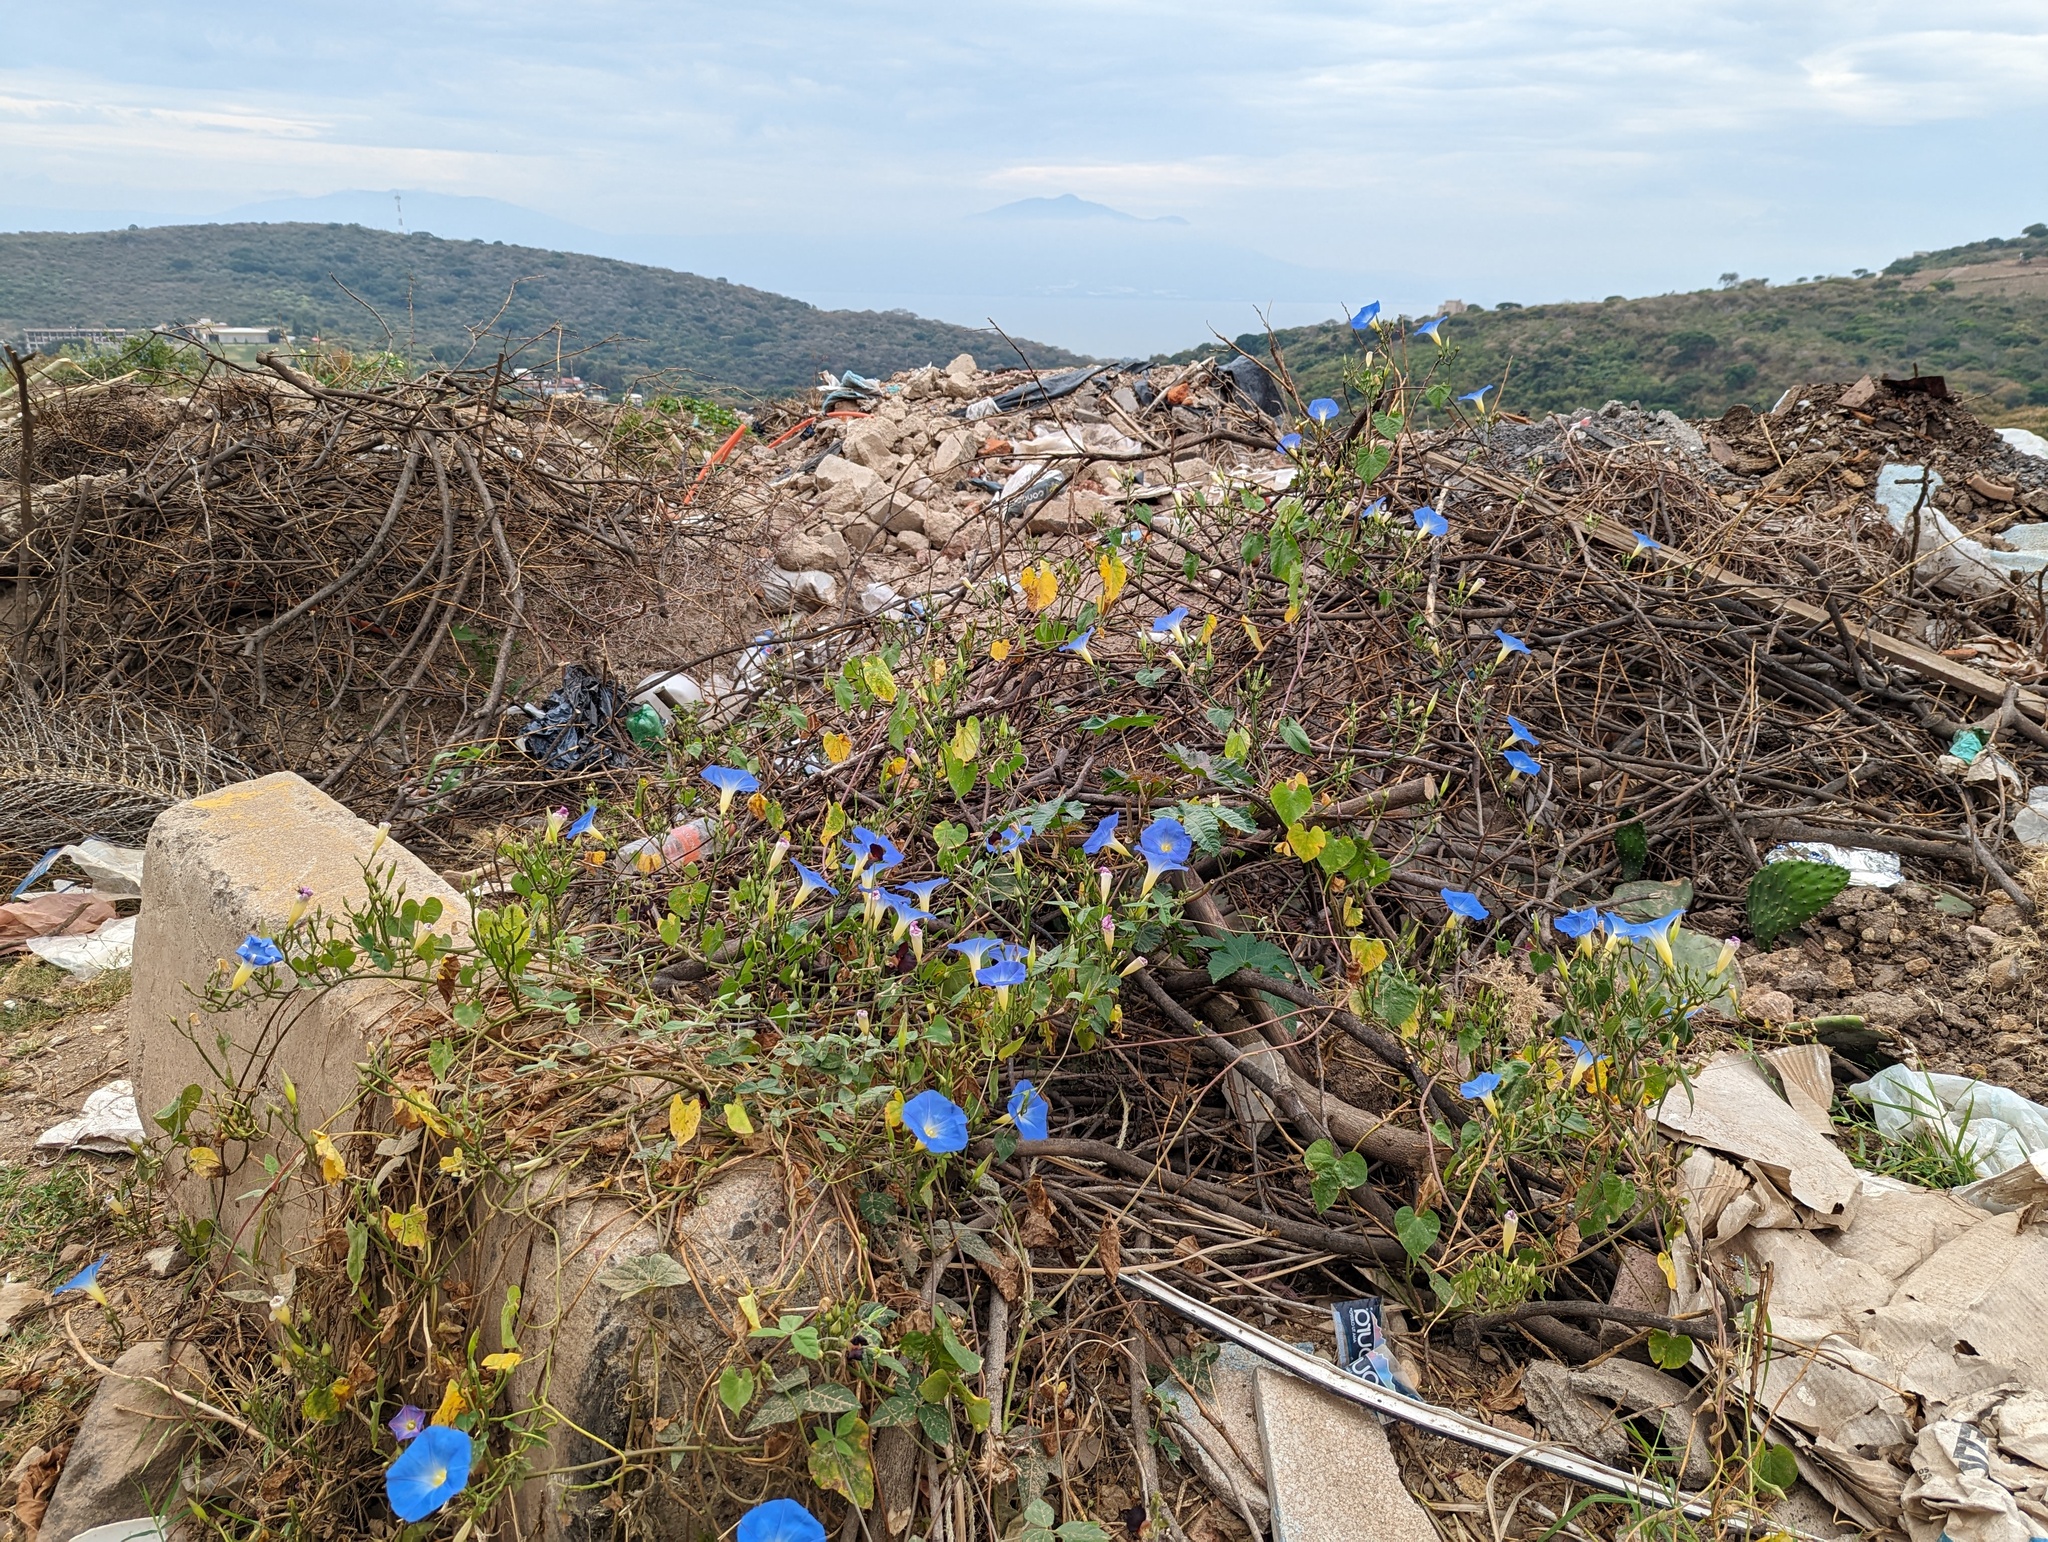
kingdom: Plantae
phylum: Tracheophyta
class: Magnoliopsida
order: Solanales
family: Convolvulaceae
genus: Ipomoea
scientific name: Ipomoea tricolor
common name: Morning-glory
